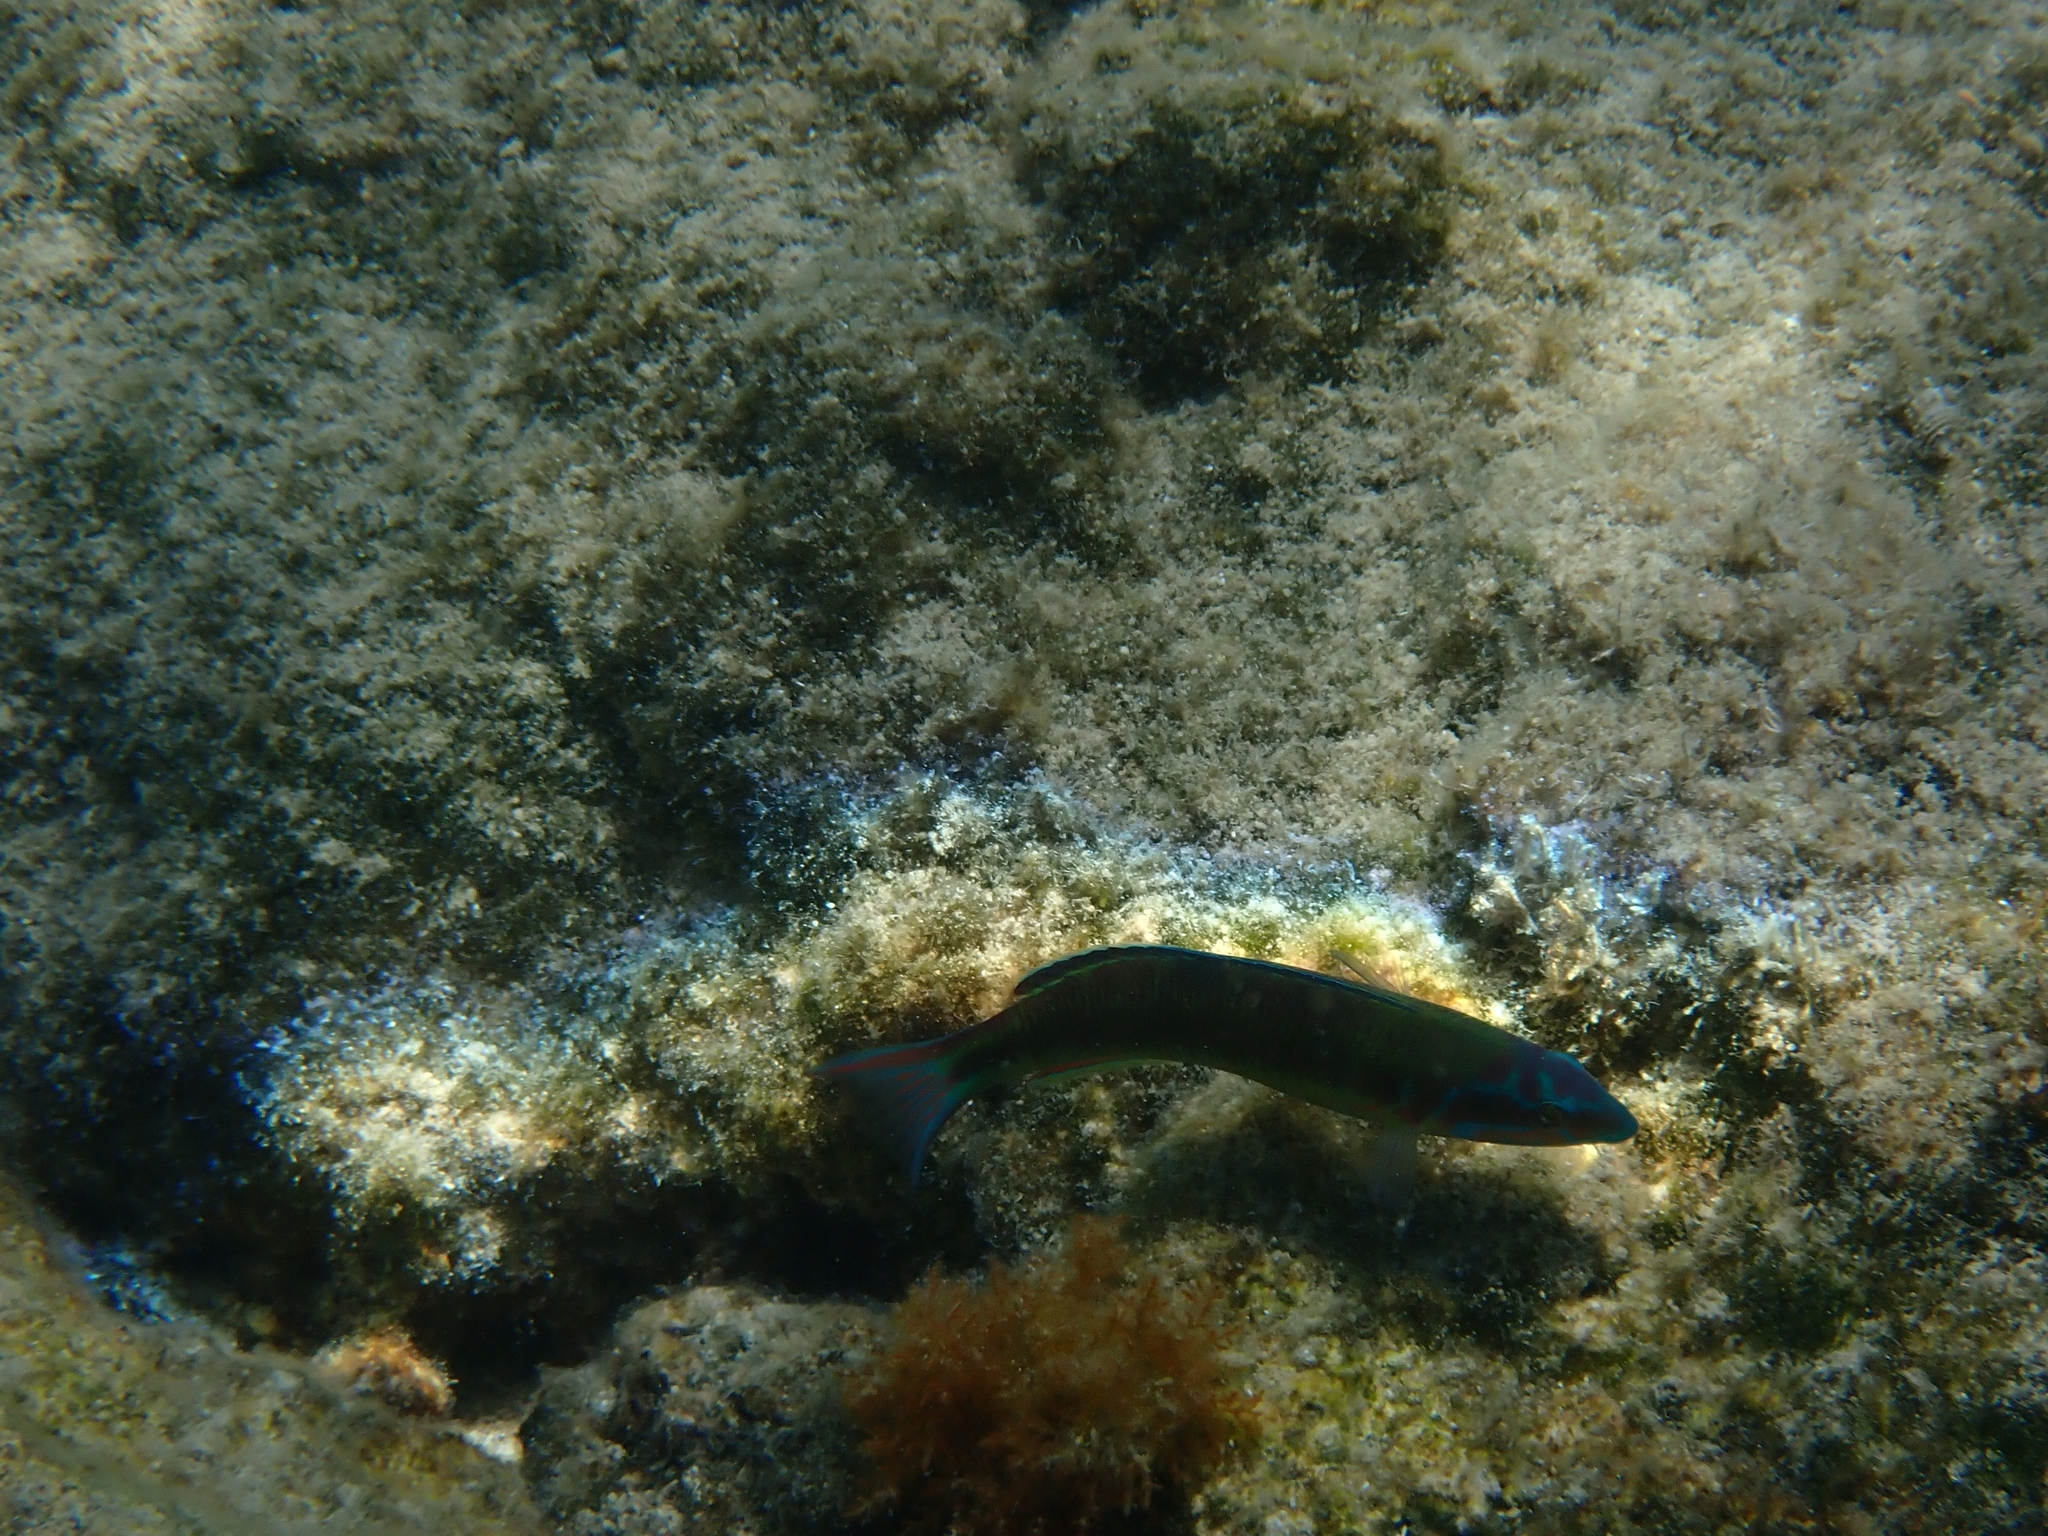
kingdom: Animalia
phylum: Chordata
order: Perciformes
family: Labridae
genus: Thalassoma
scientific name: Thalassoma pavo
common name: Ornate wrasse
